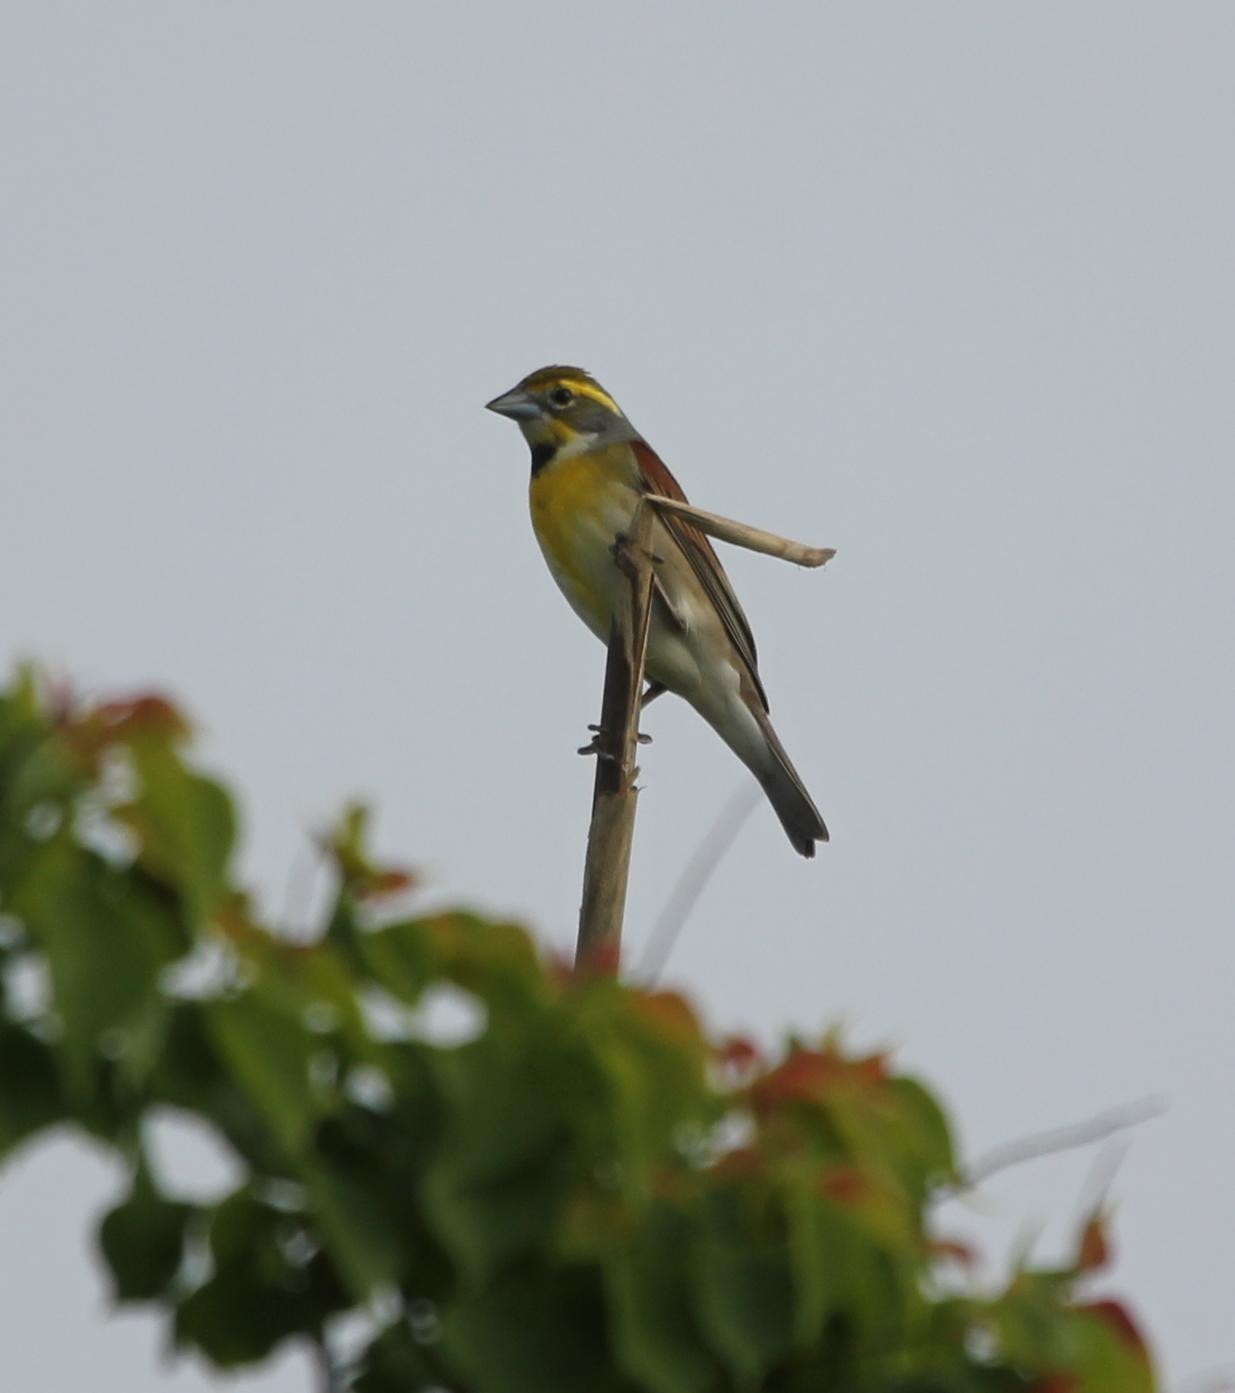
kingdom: Animalia
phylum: Chordata
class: Aves
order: Passeriformes
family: Cardinalidae
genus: Spiza
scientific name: Spiza americana
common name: Dickcissel
